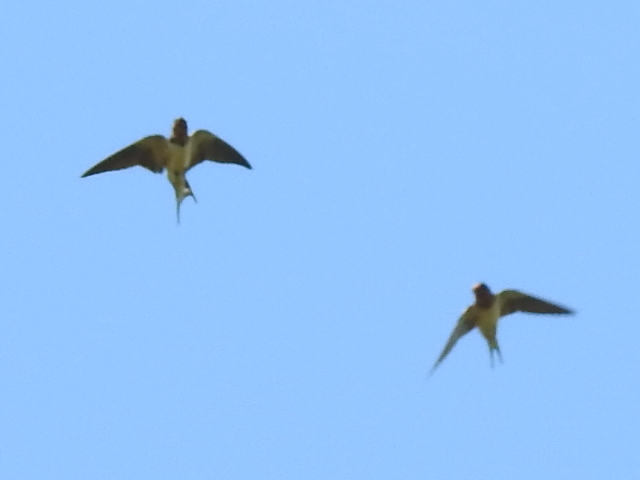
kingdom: Animalia
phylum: Chordata
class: Aves
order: Passeriformes
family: Hirundinidae
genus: Hirundo
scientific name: Hirundo rustica
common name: Barn swallow
